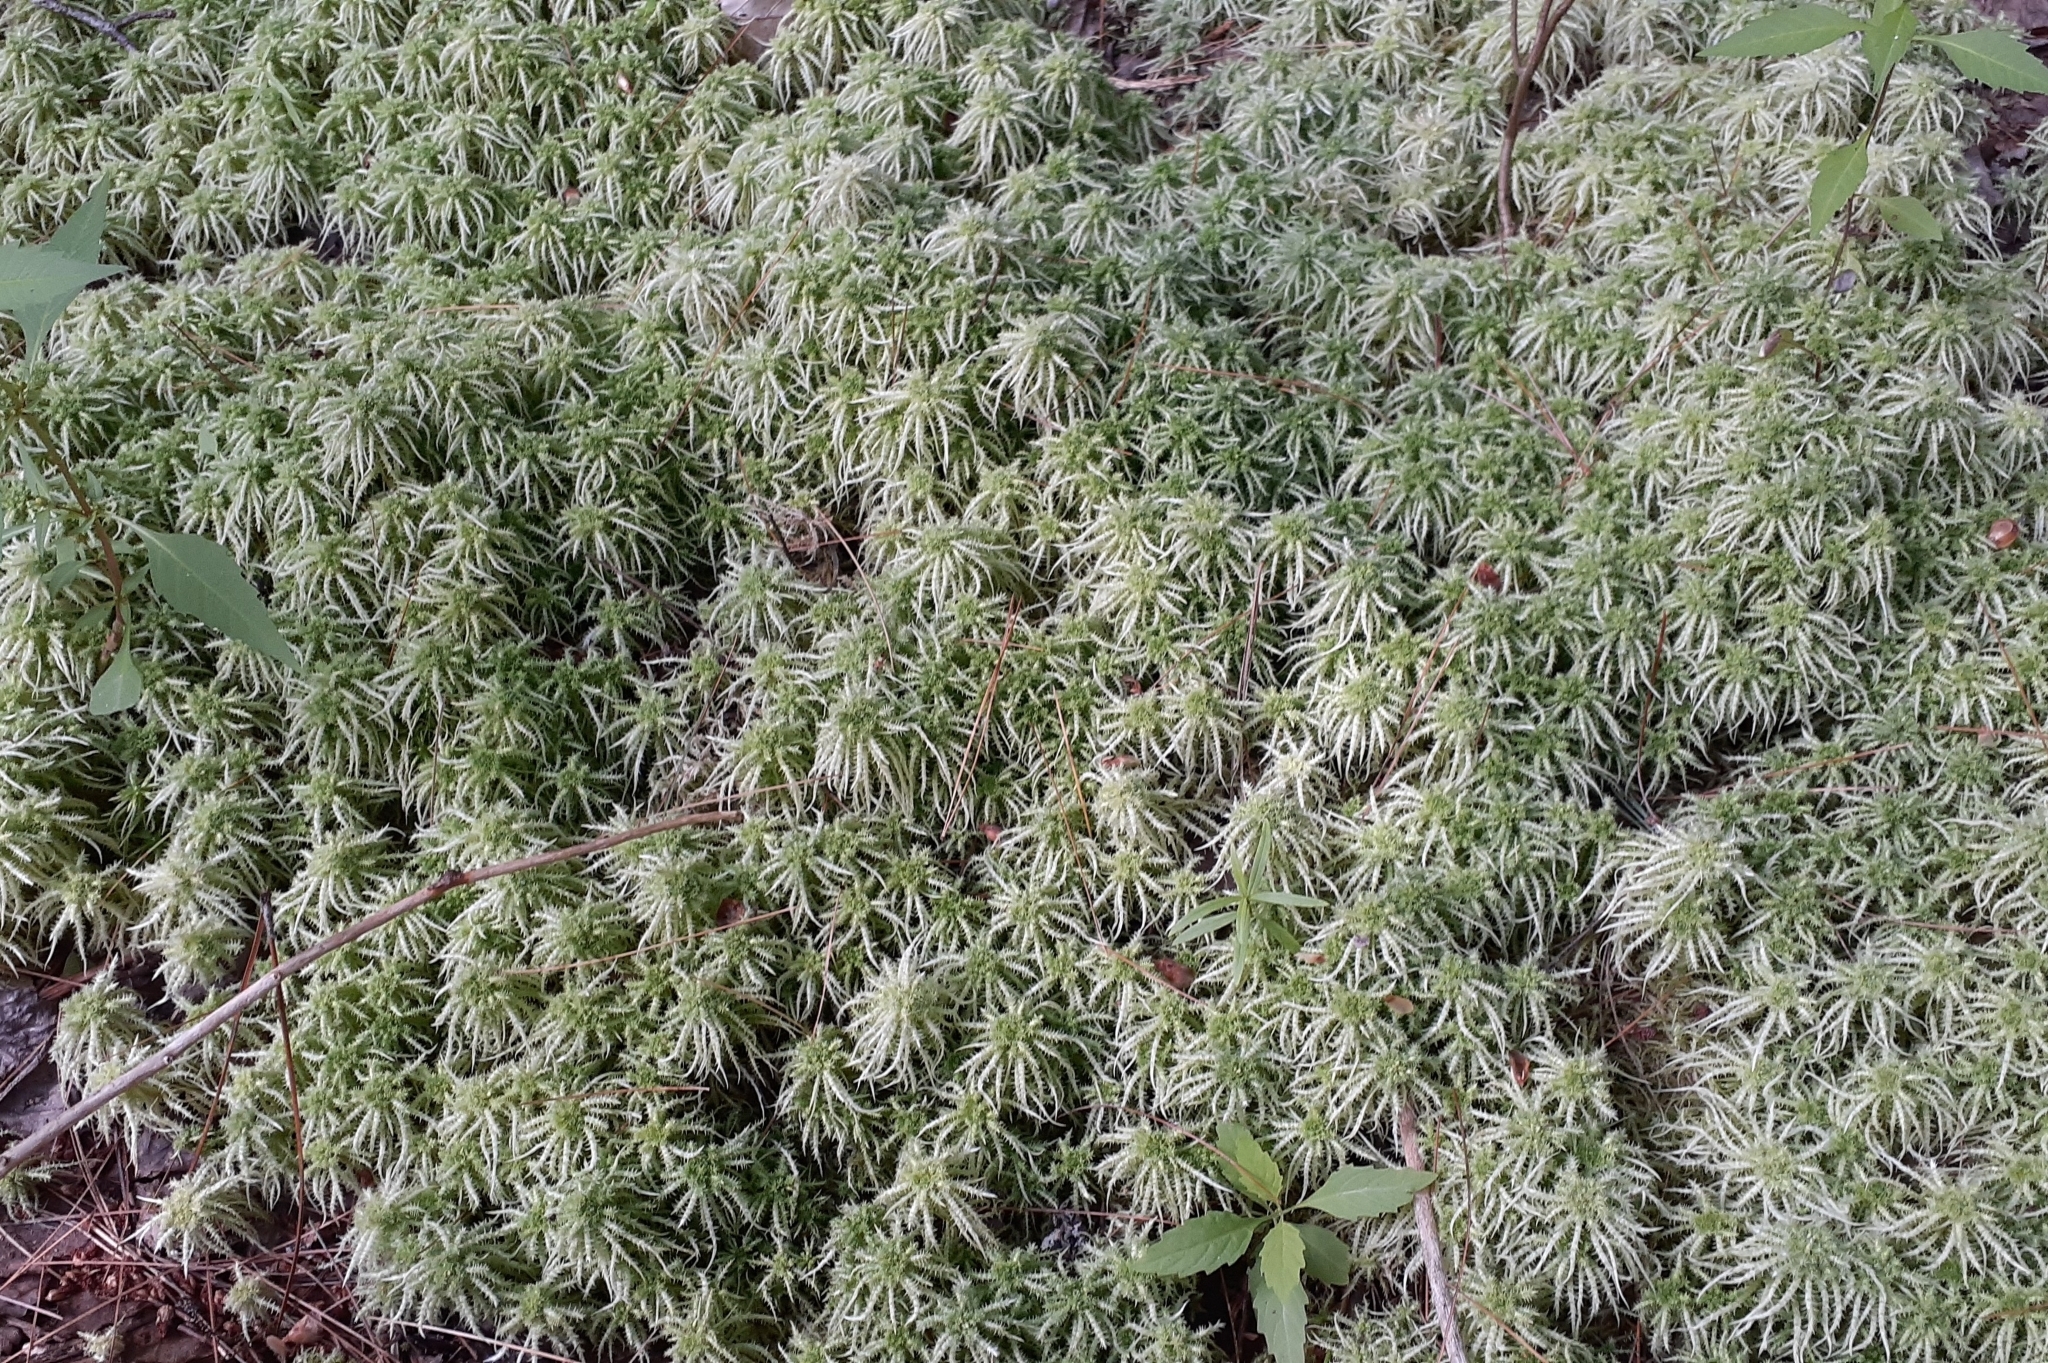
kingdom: Plantae
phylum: Bryophyta
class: Sphagnopsida
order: Sphagnales
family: Sphagnaceae
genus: Sphagnum
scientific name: Sphagnum squarrosum
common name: Shaggy peat moss
